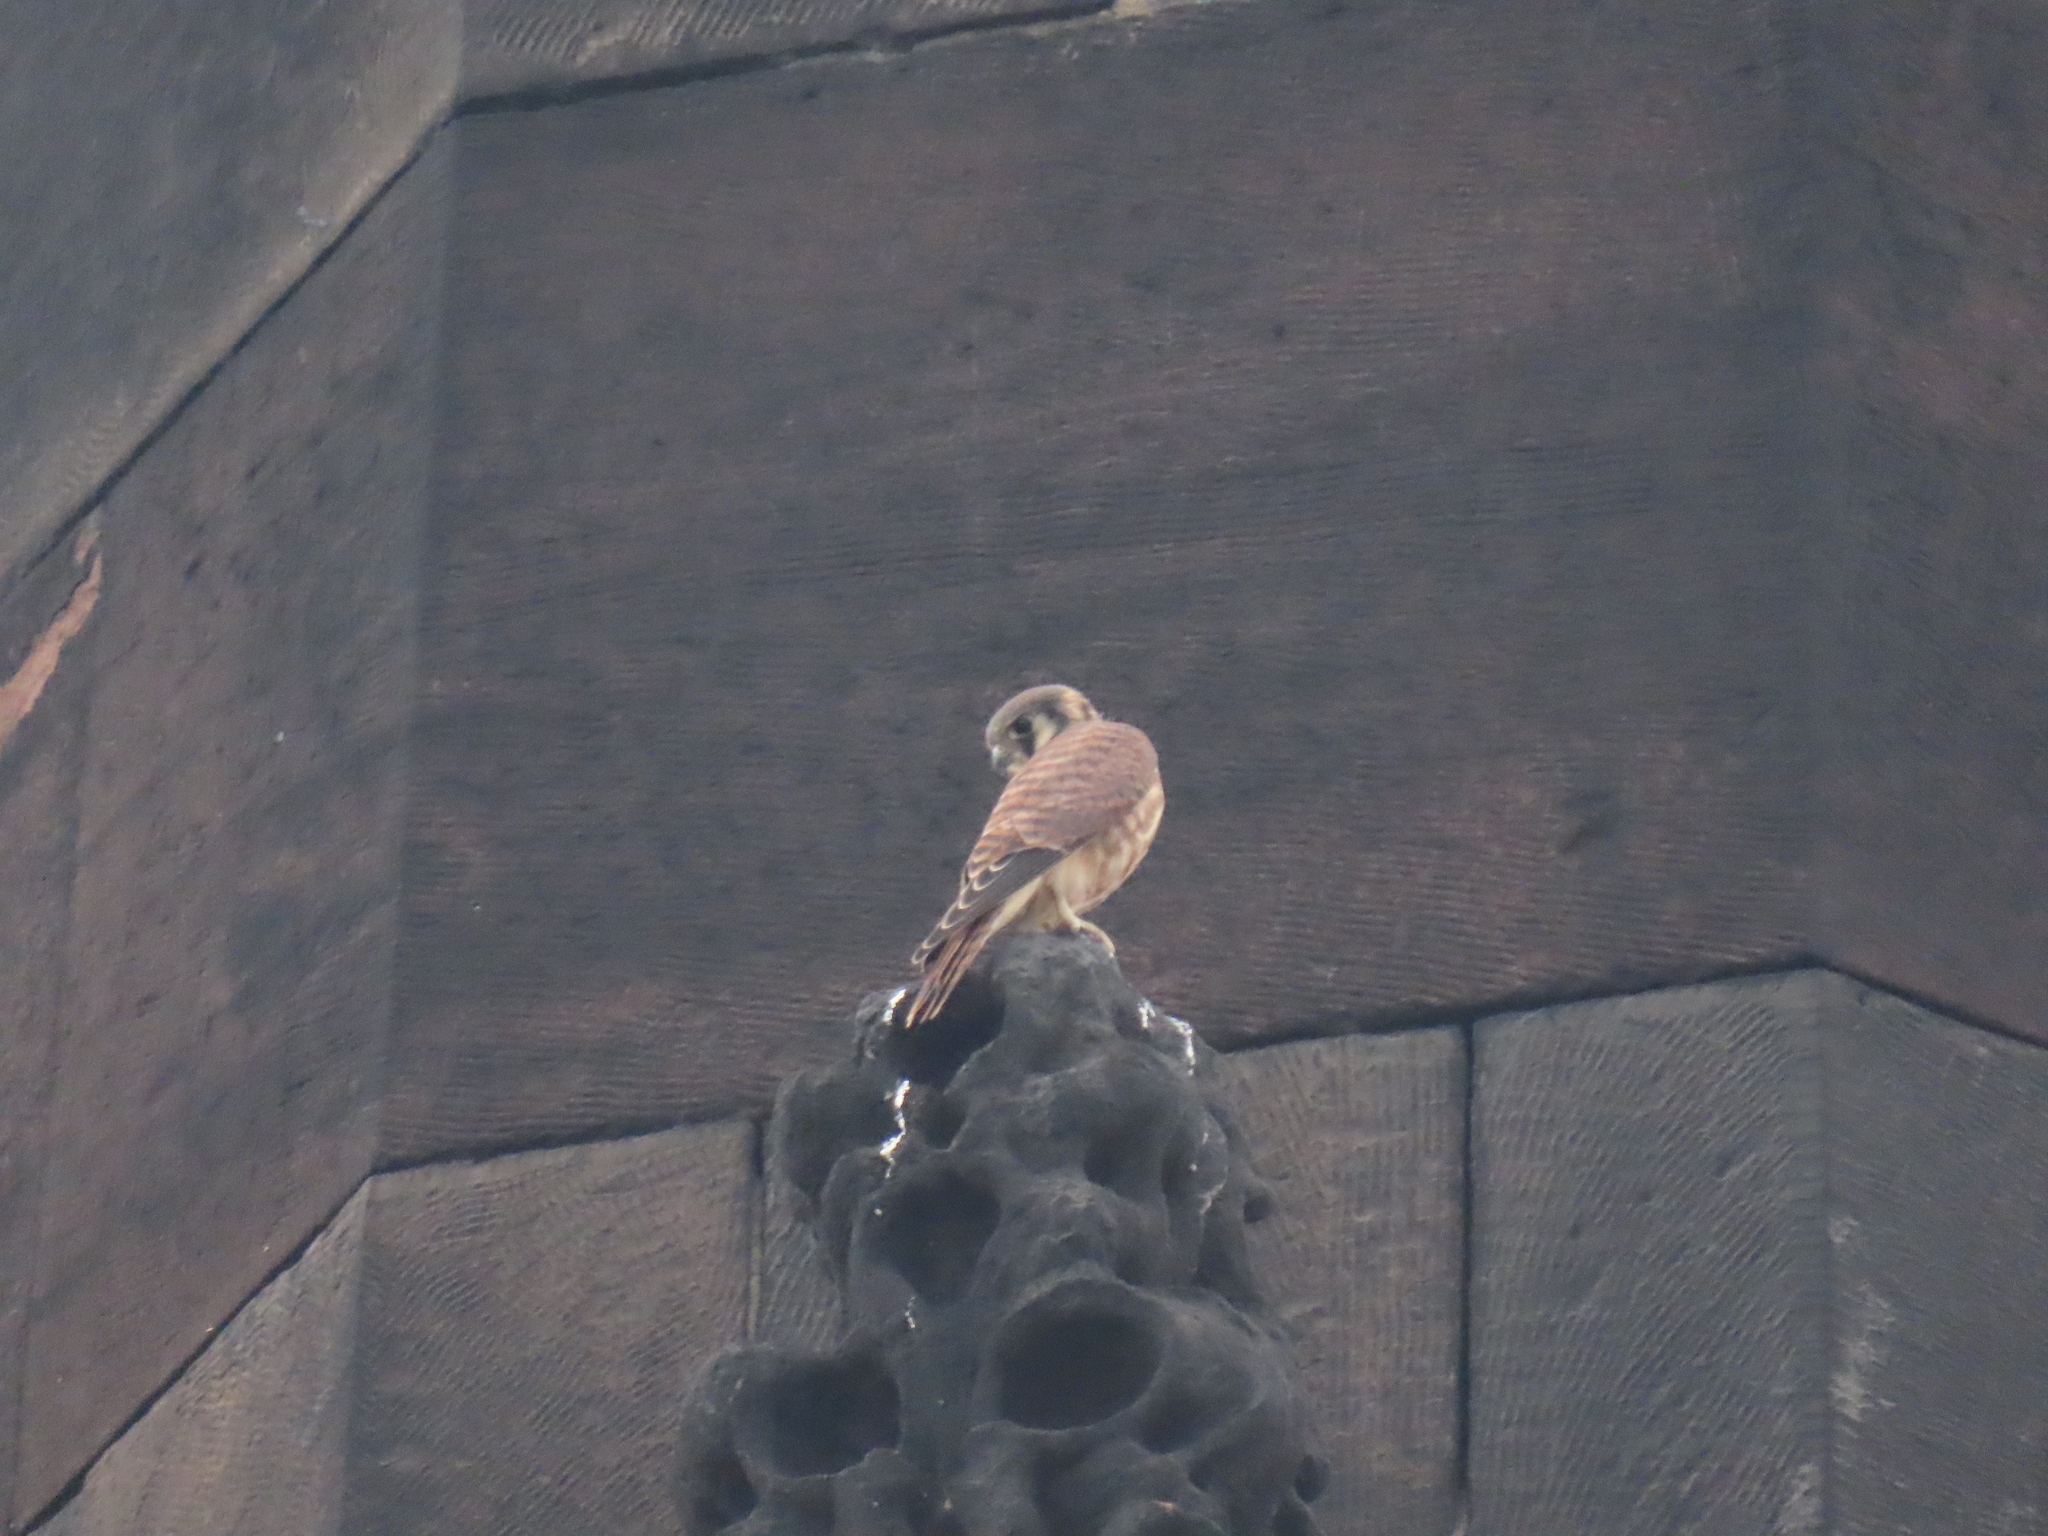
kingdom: Animalia
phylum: Chordata
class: Aves
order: Falconiformes
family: Falconidae
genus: Falco
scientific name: Falco sparverius
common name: American kestrel
